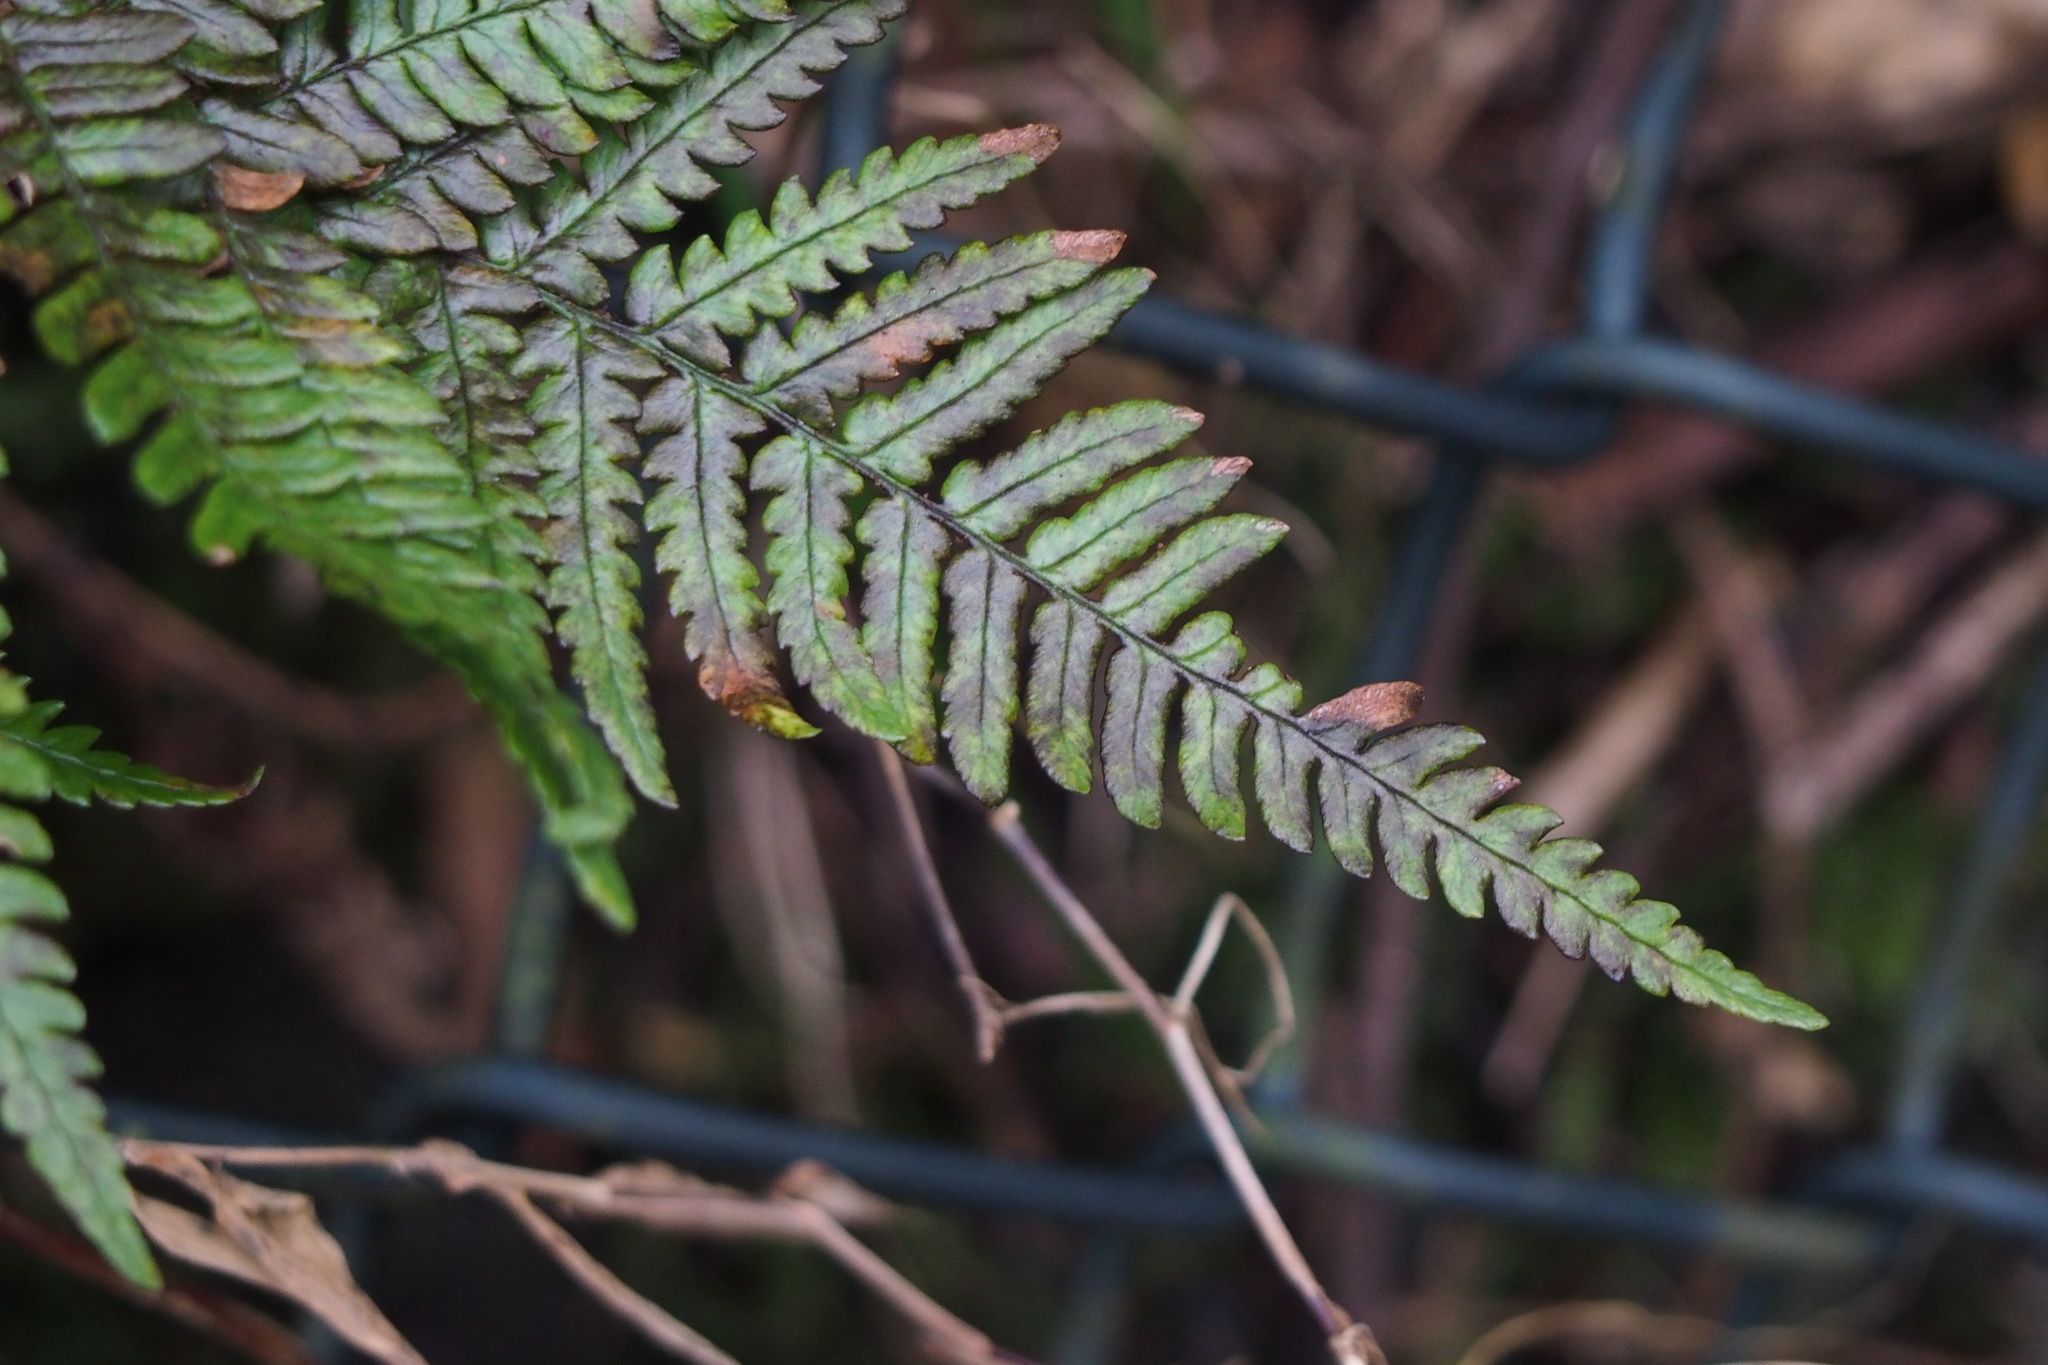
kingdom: Plantae
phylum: Tracheophyta
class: Polypodiopsida
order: Polypodiales
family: Dryopteridaceae
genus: Dryopteris
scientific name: Dryopteris bissetiana
